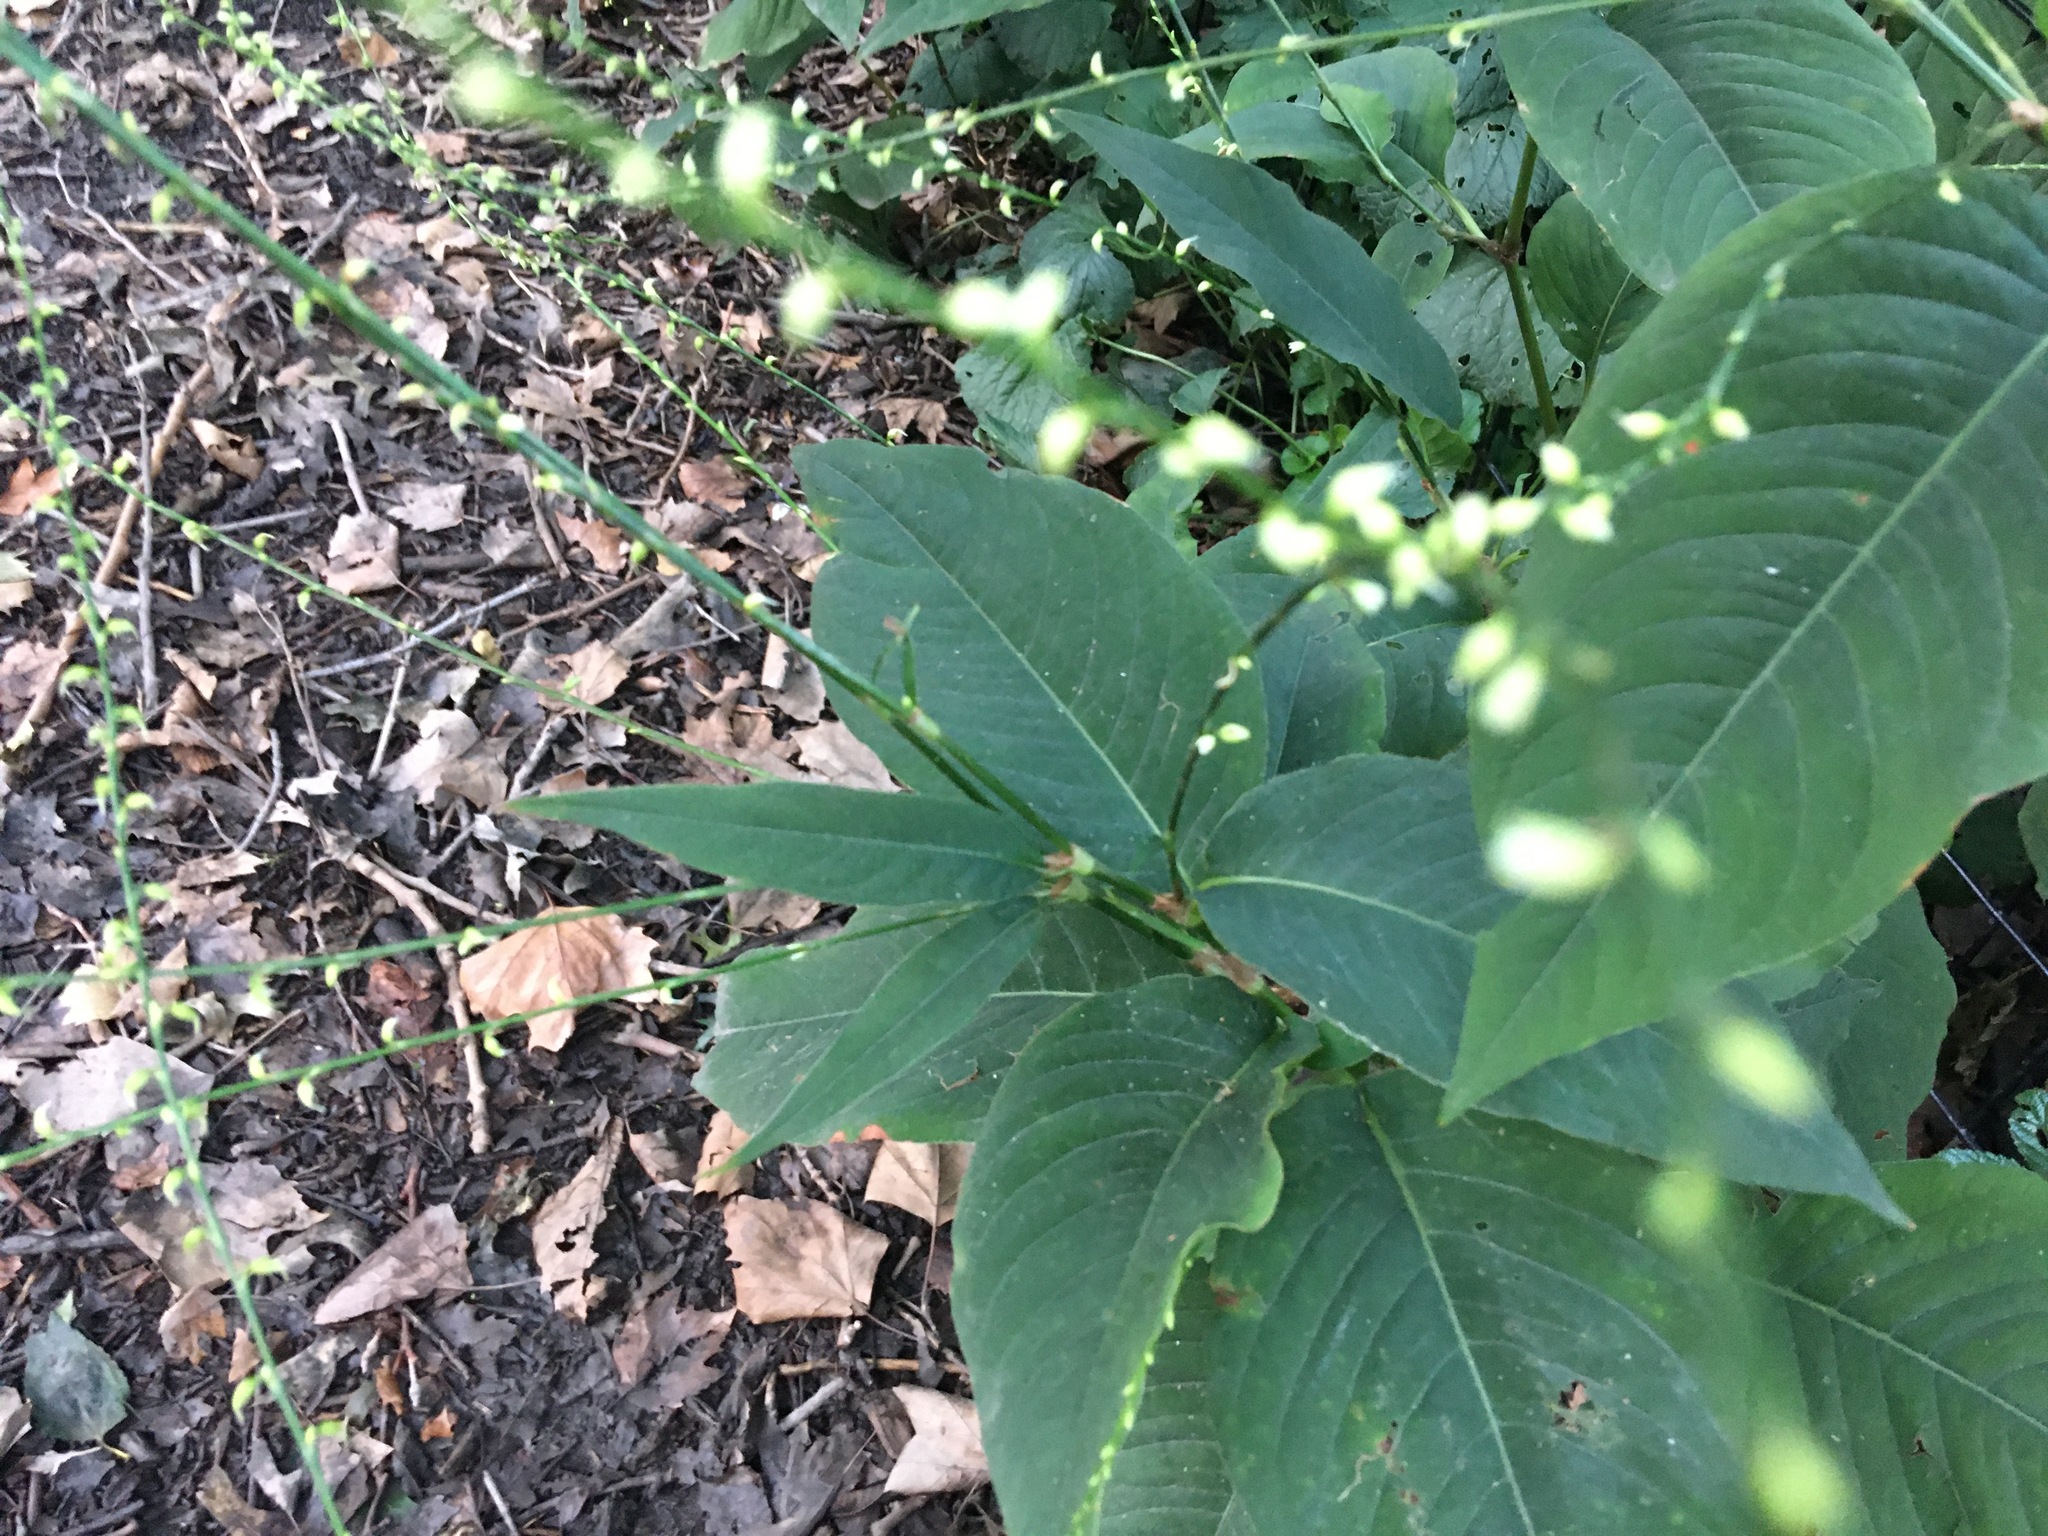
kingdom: Plantae
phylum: Tracheophyta
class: Magnoliopsida
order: Caryophyllales
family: Polygonaceae
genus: Persicaria
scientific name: Persicaria virginiana
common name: Jumpseed
